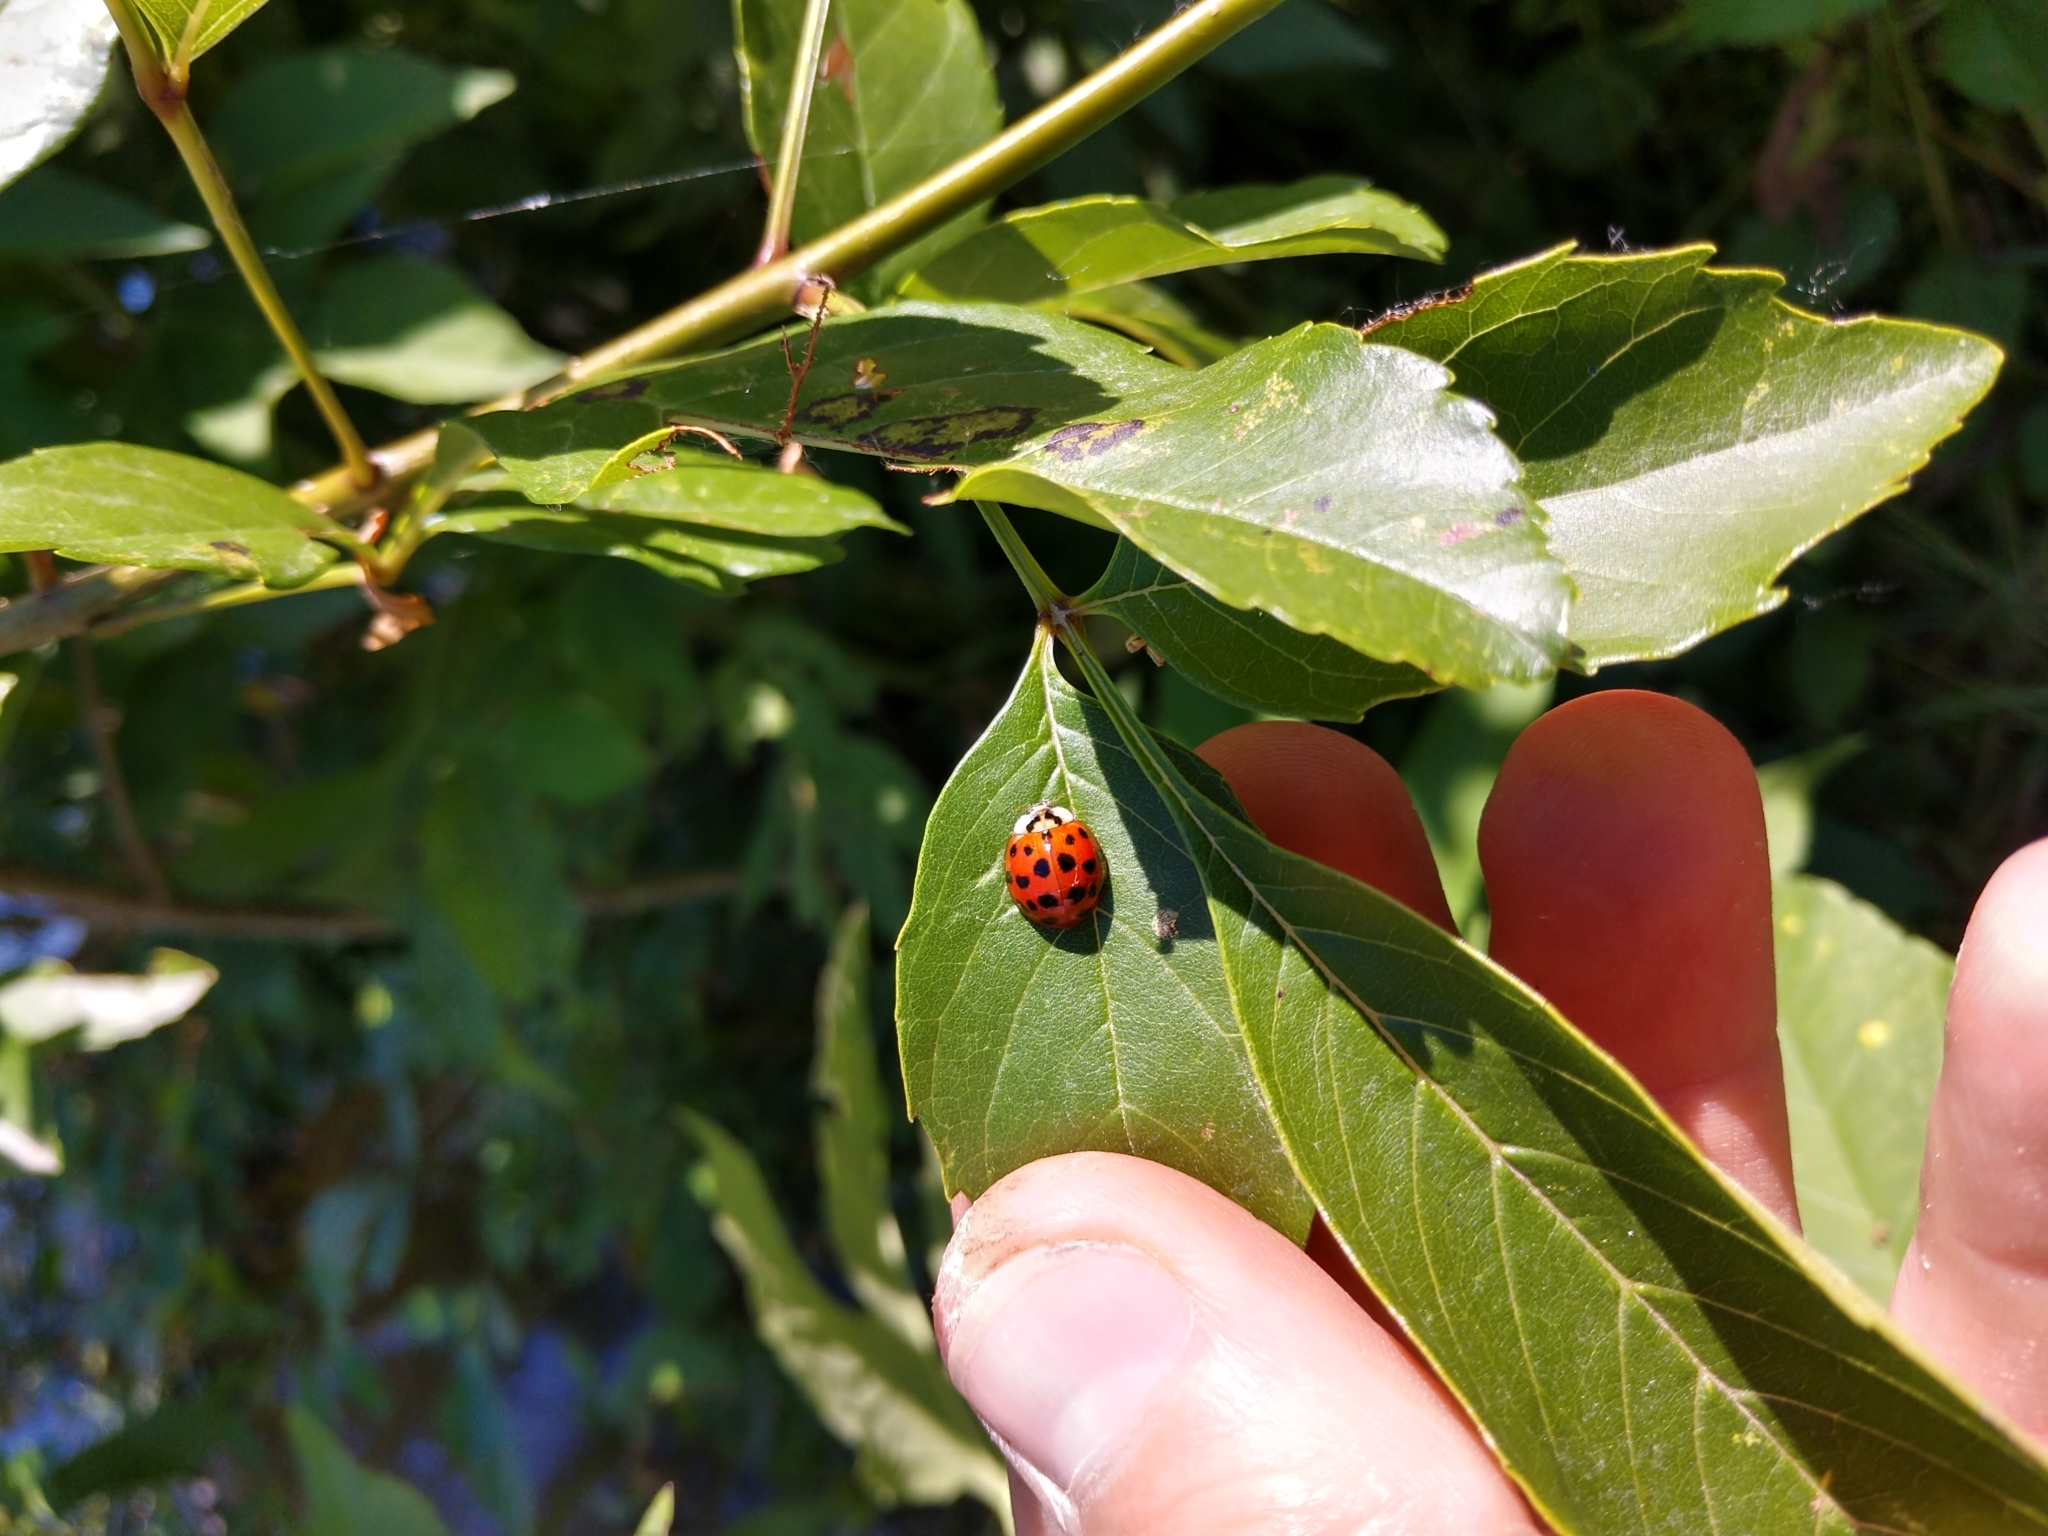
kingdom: Animalia
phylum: Arthropoda
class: Insecta
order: Coleoptera
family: Coccinellidae
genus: Harmonia
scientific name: Harmonia axyridis
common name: Harlequin ladybird
